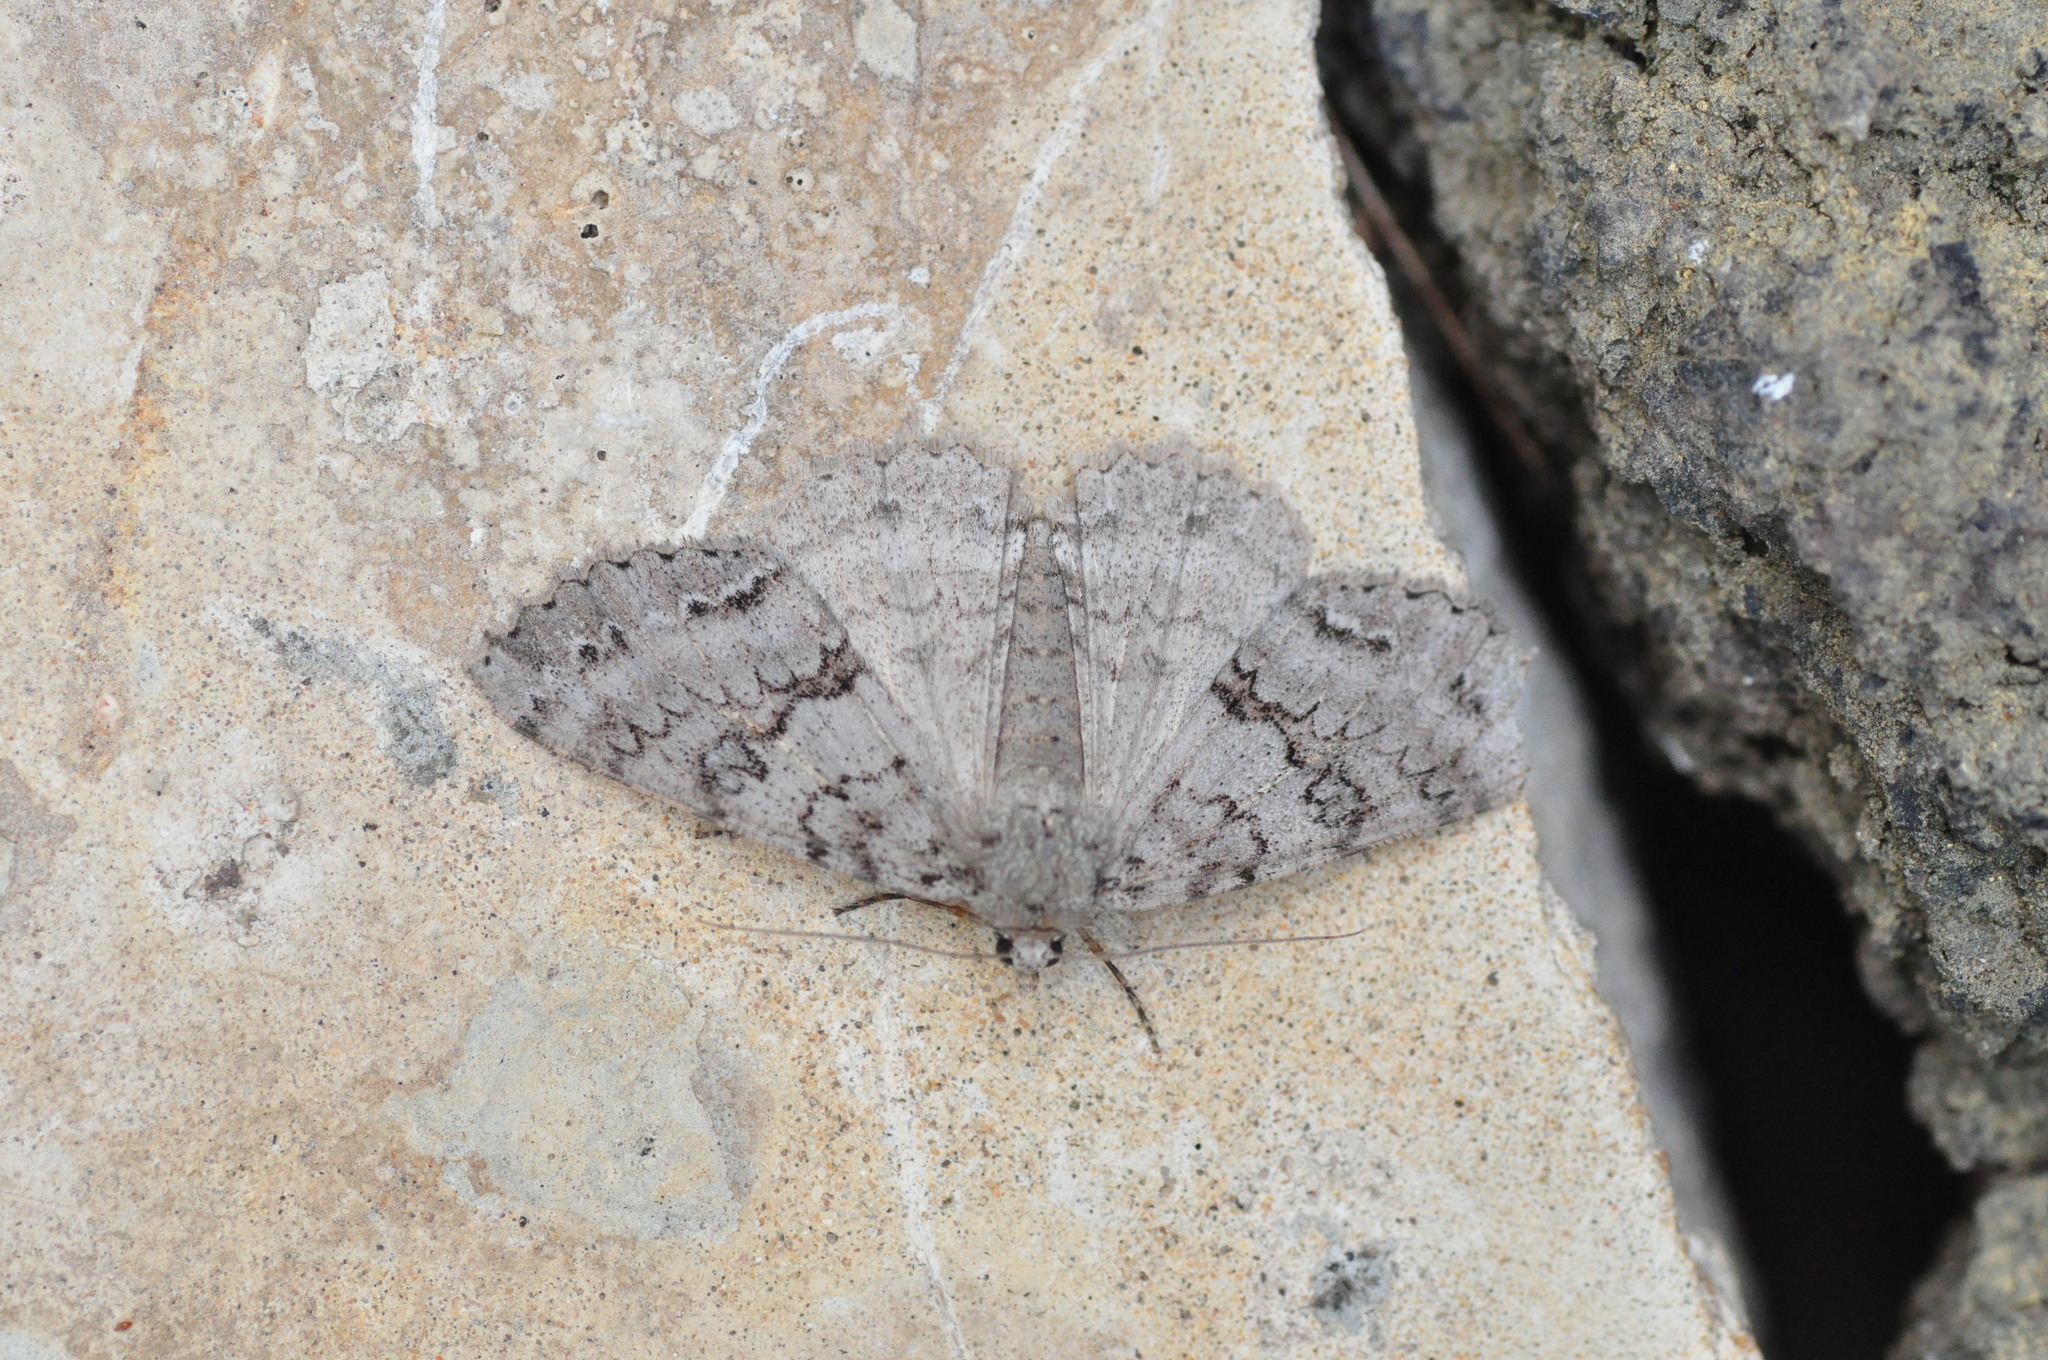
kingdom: Animalia
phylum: Arthropoda
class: Insecta
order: Lepidoptera
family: Geometridae
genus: Ascotis
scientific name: Ascotis fortunata
